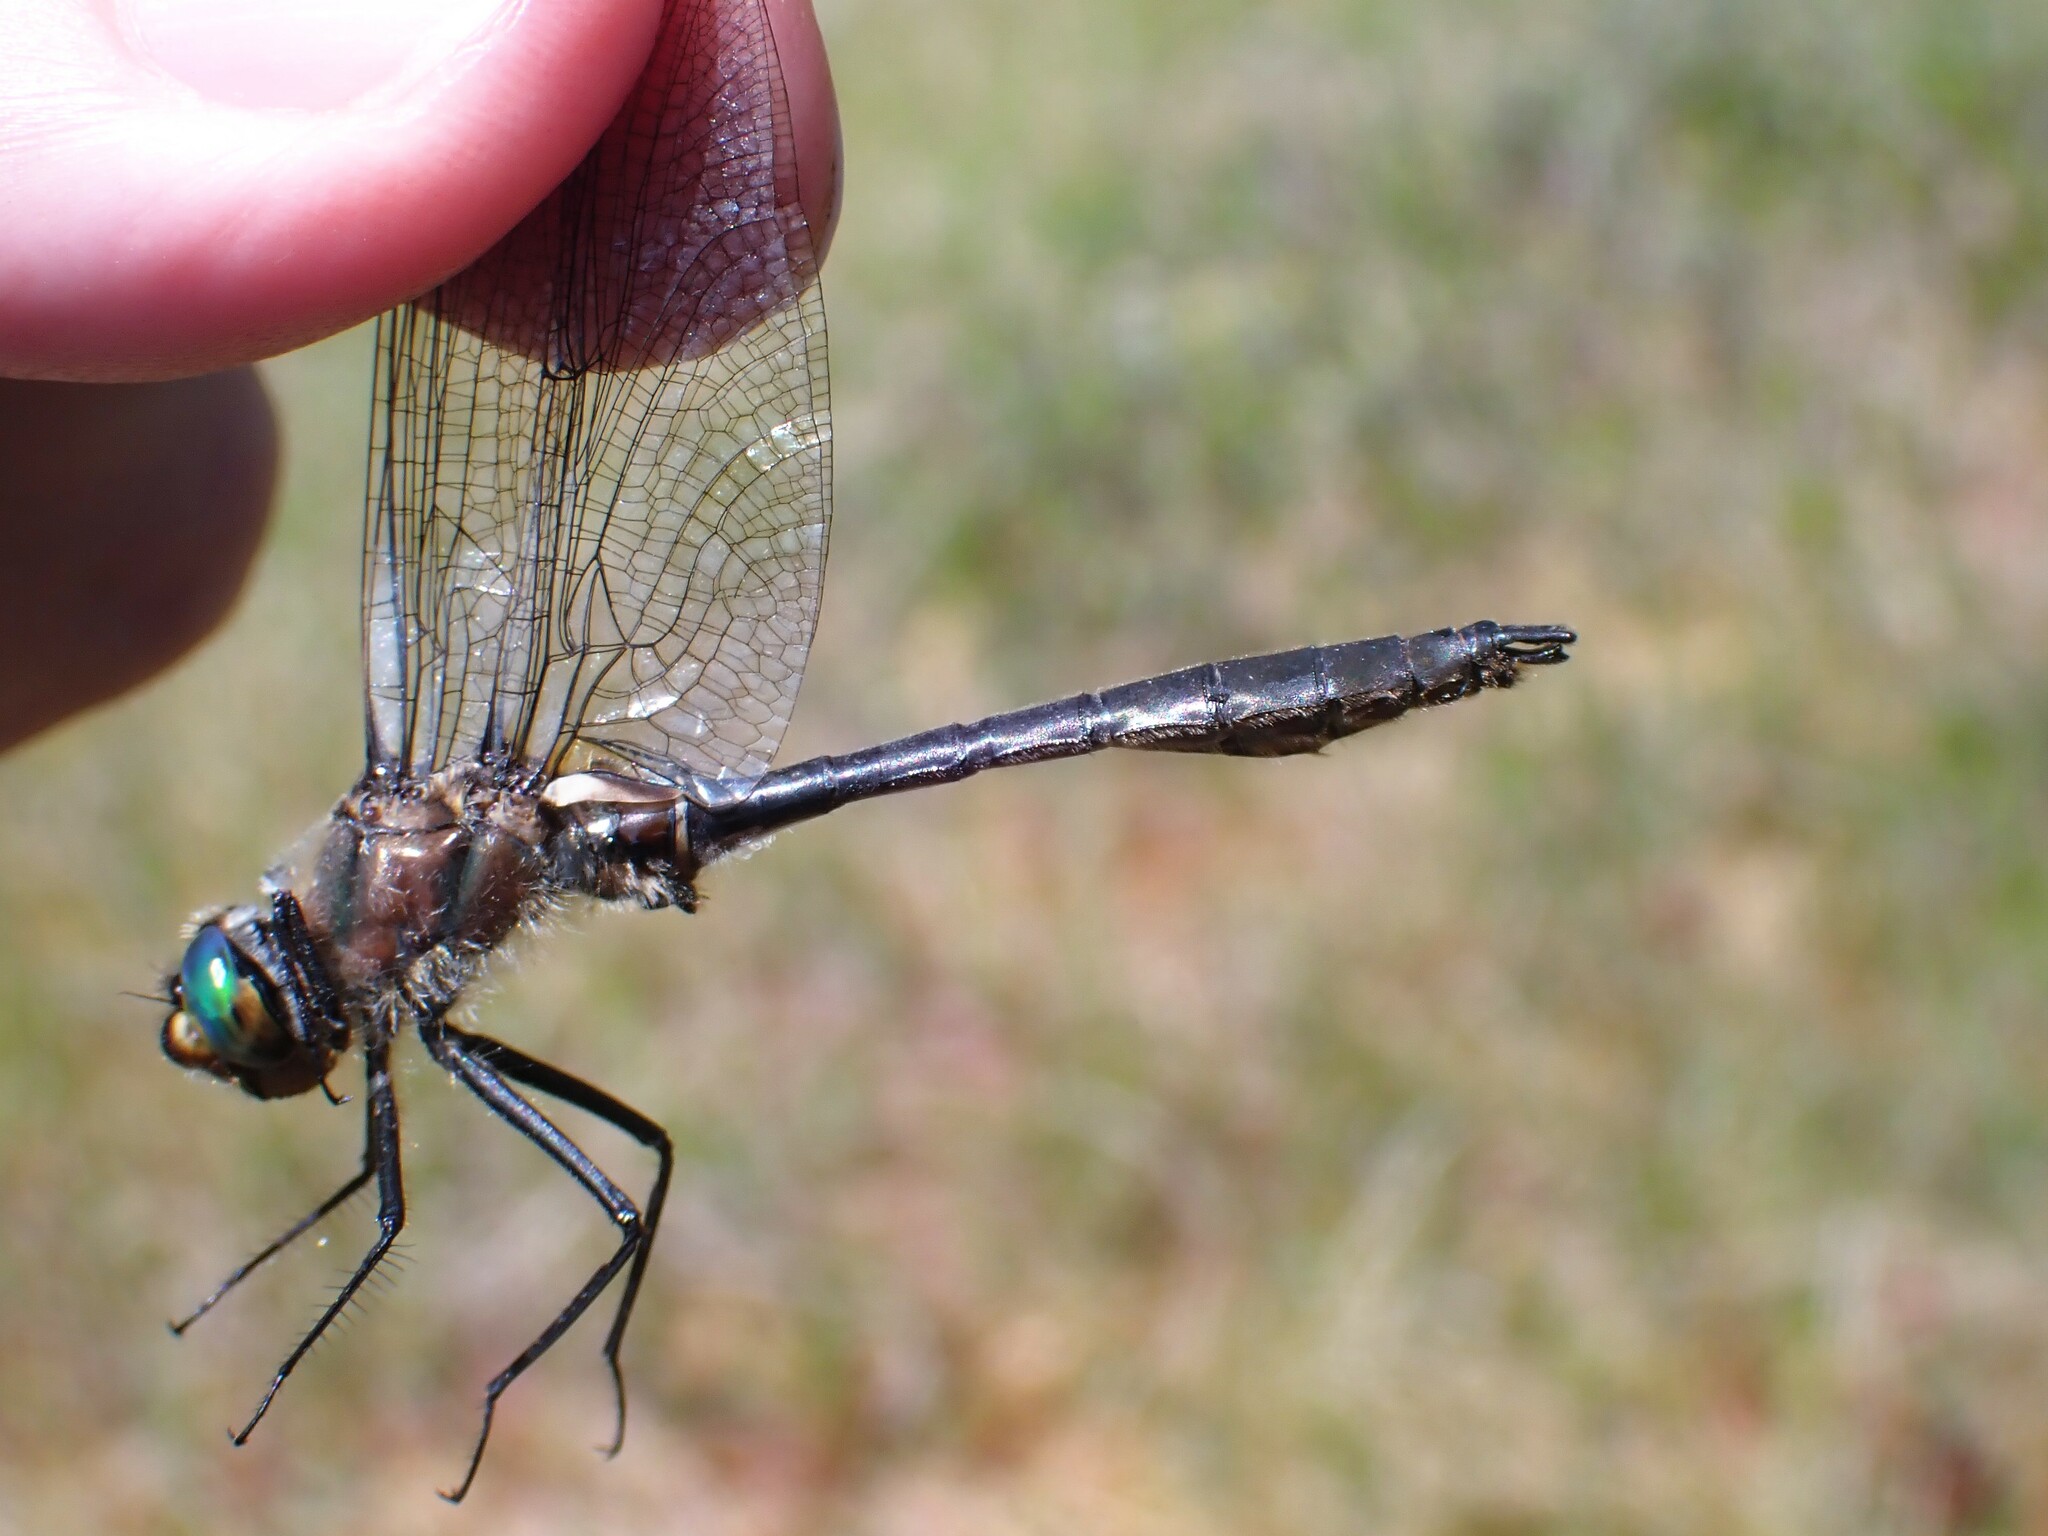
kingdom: Animalia
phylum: Arthropoda
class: Insecta
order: Odonata
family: Corduliidae
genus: Cordulia
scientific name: Cordulia shurtleffii
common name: American emerald
